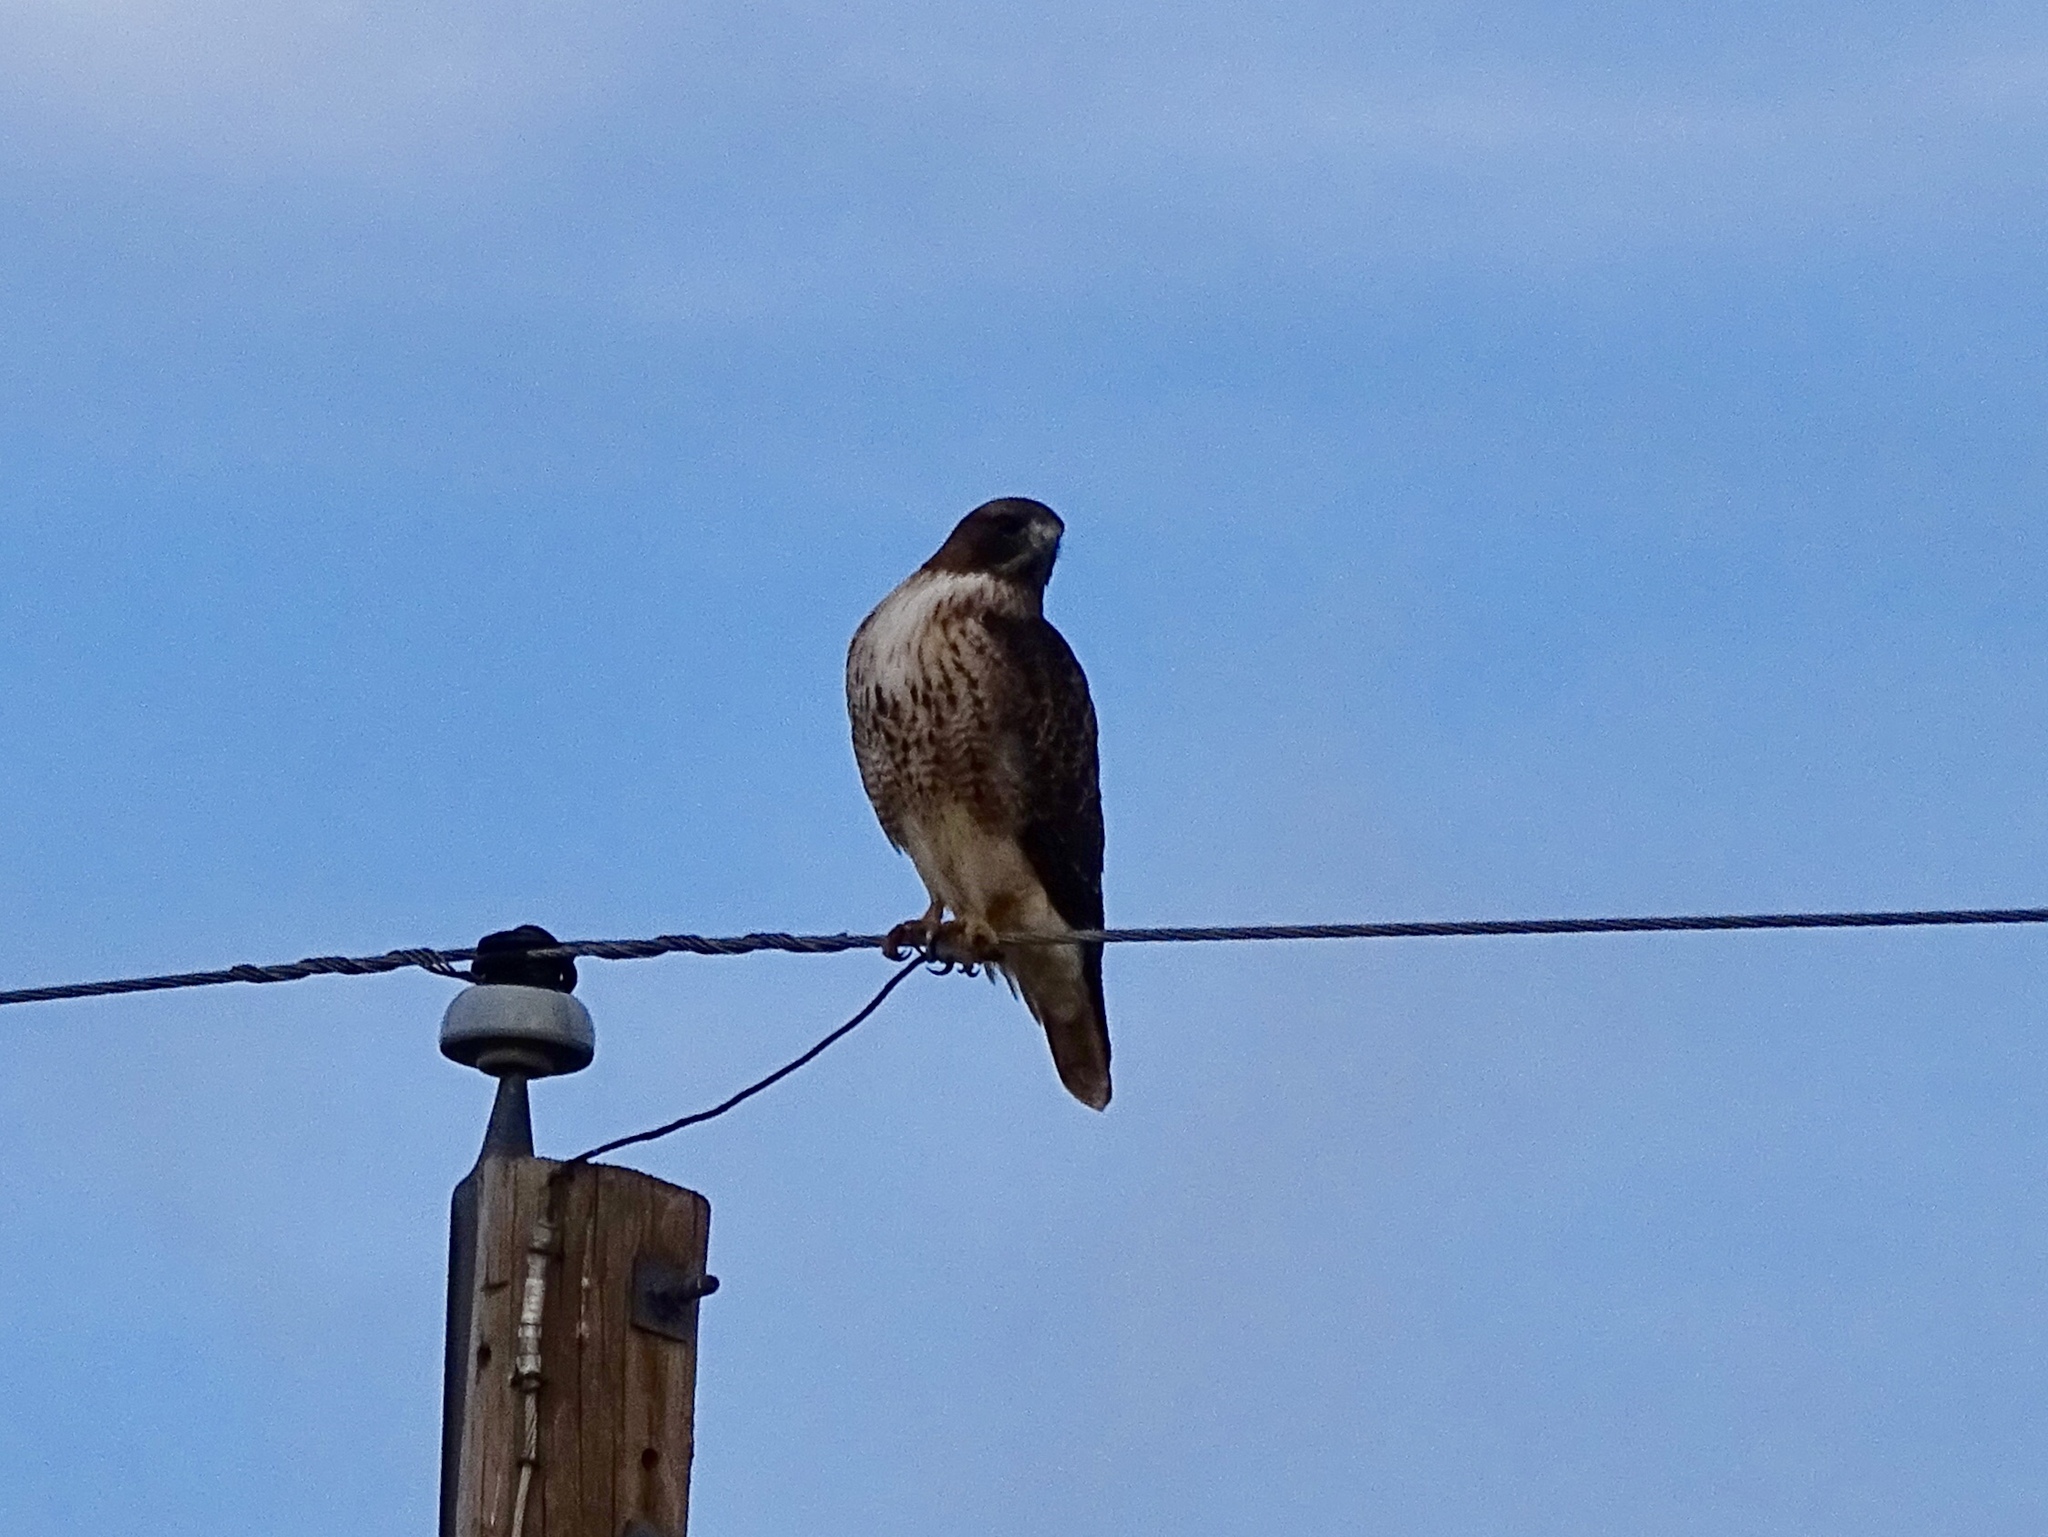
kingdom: Animalia
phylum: Chordata
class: Aves
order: Accipitriformes
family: Accipitridae
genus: Buteo
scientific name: Buteo jamaicensis
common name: Red-tailed hawk
